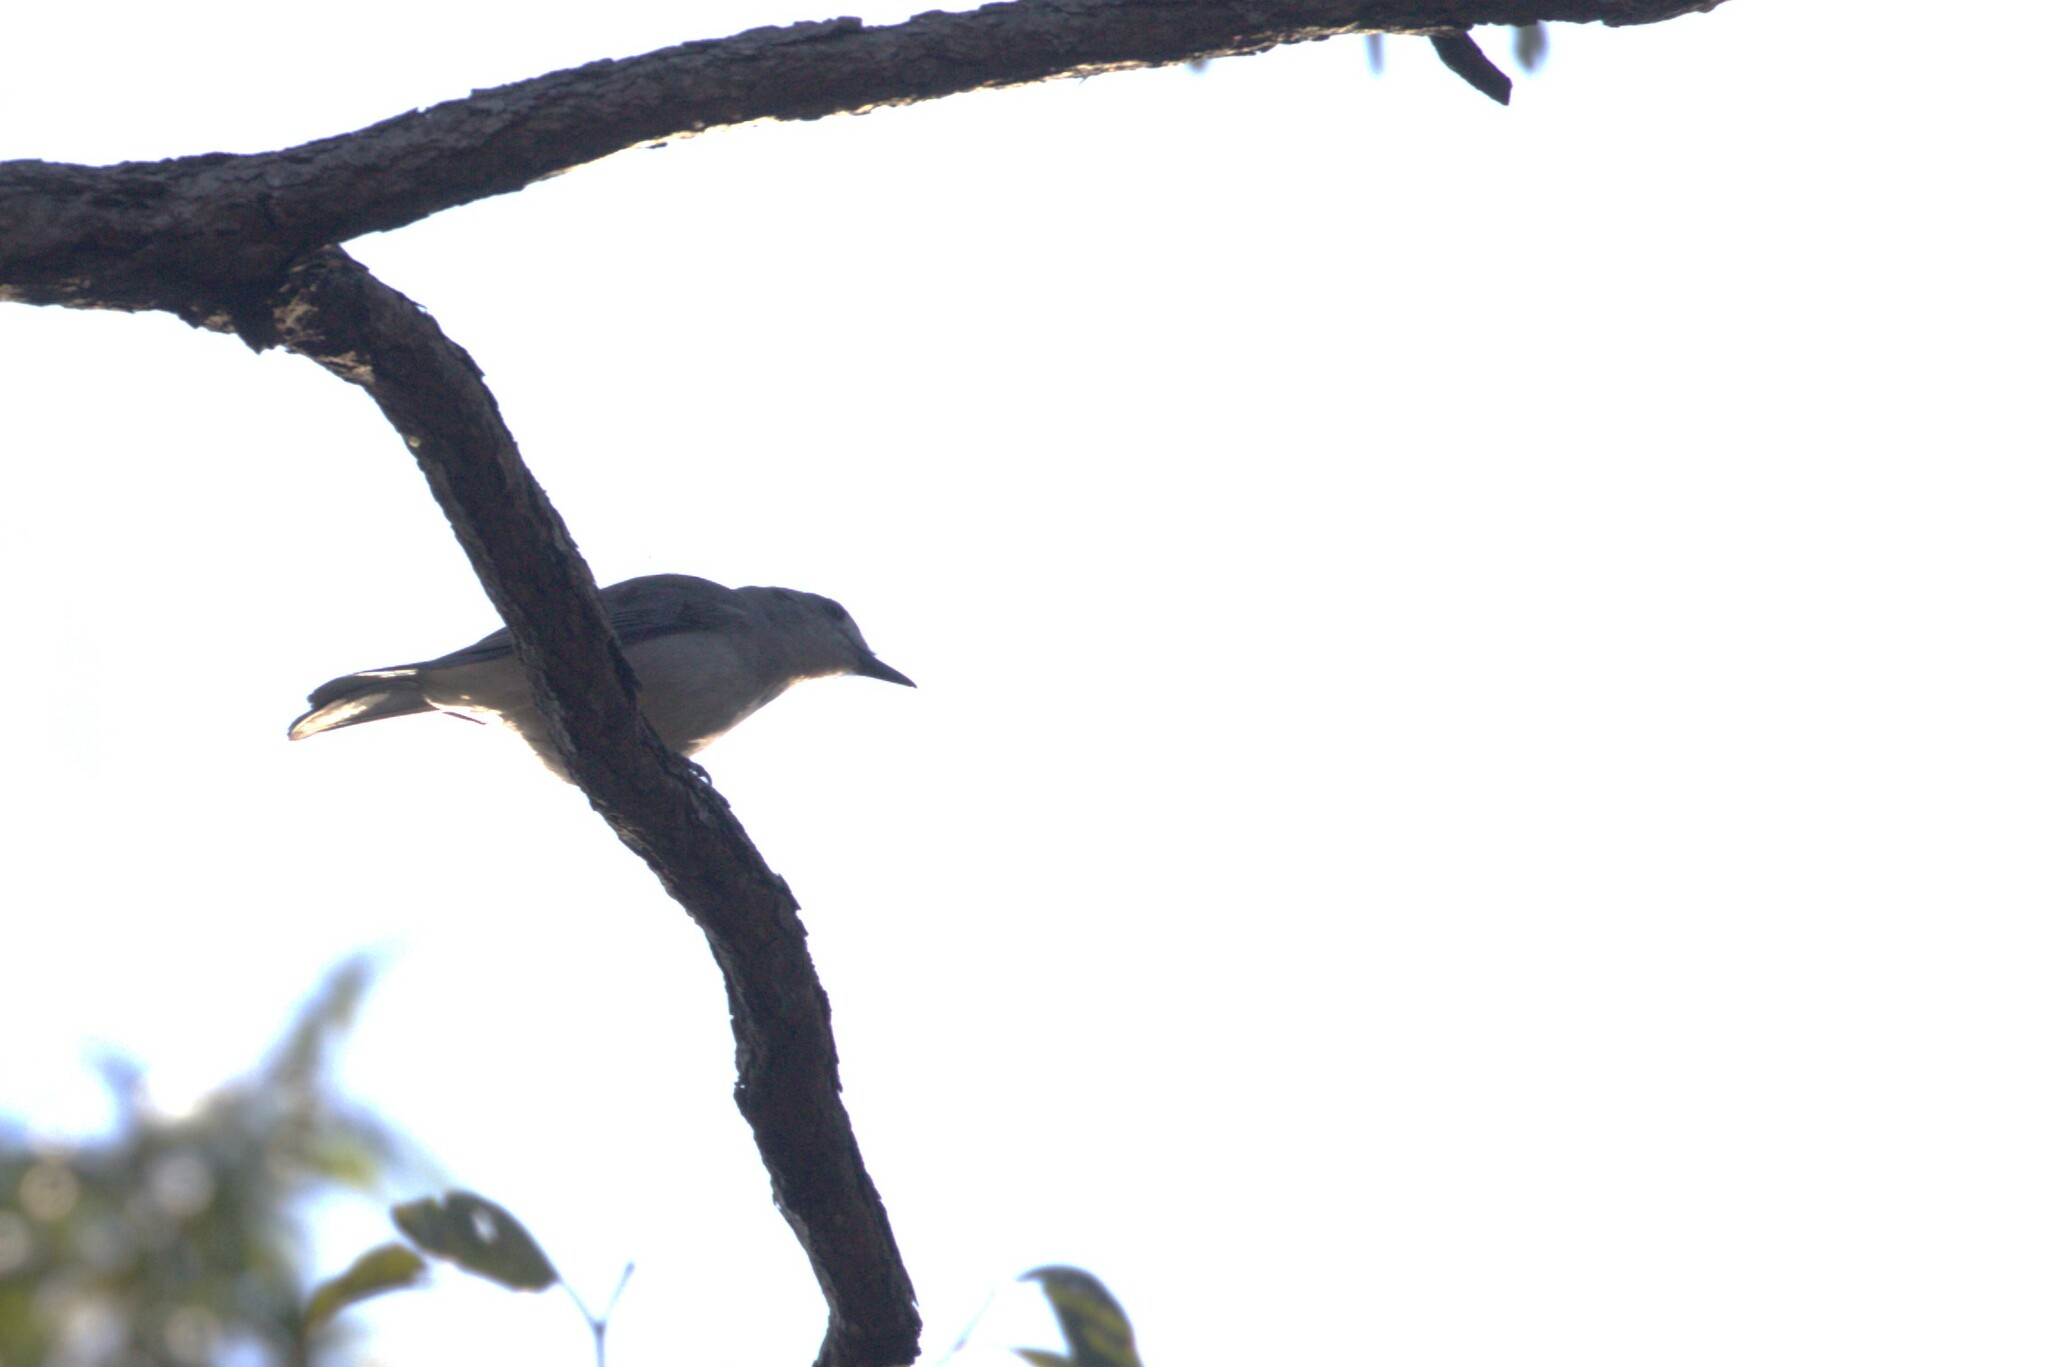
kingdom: Animalia
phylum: Chordata
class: Aves
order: Passeriformes
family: Pachycephalidae
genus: Colluricincla
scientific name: Colluricincla harmonica
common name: Grey shrikethrush
